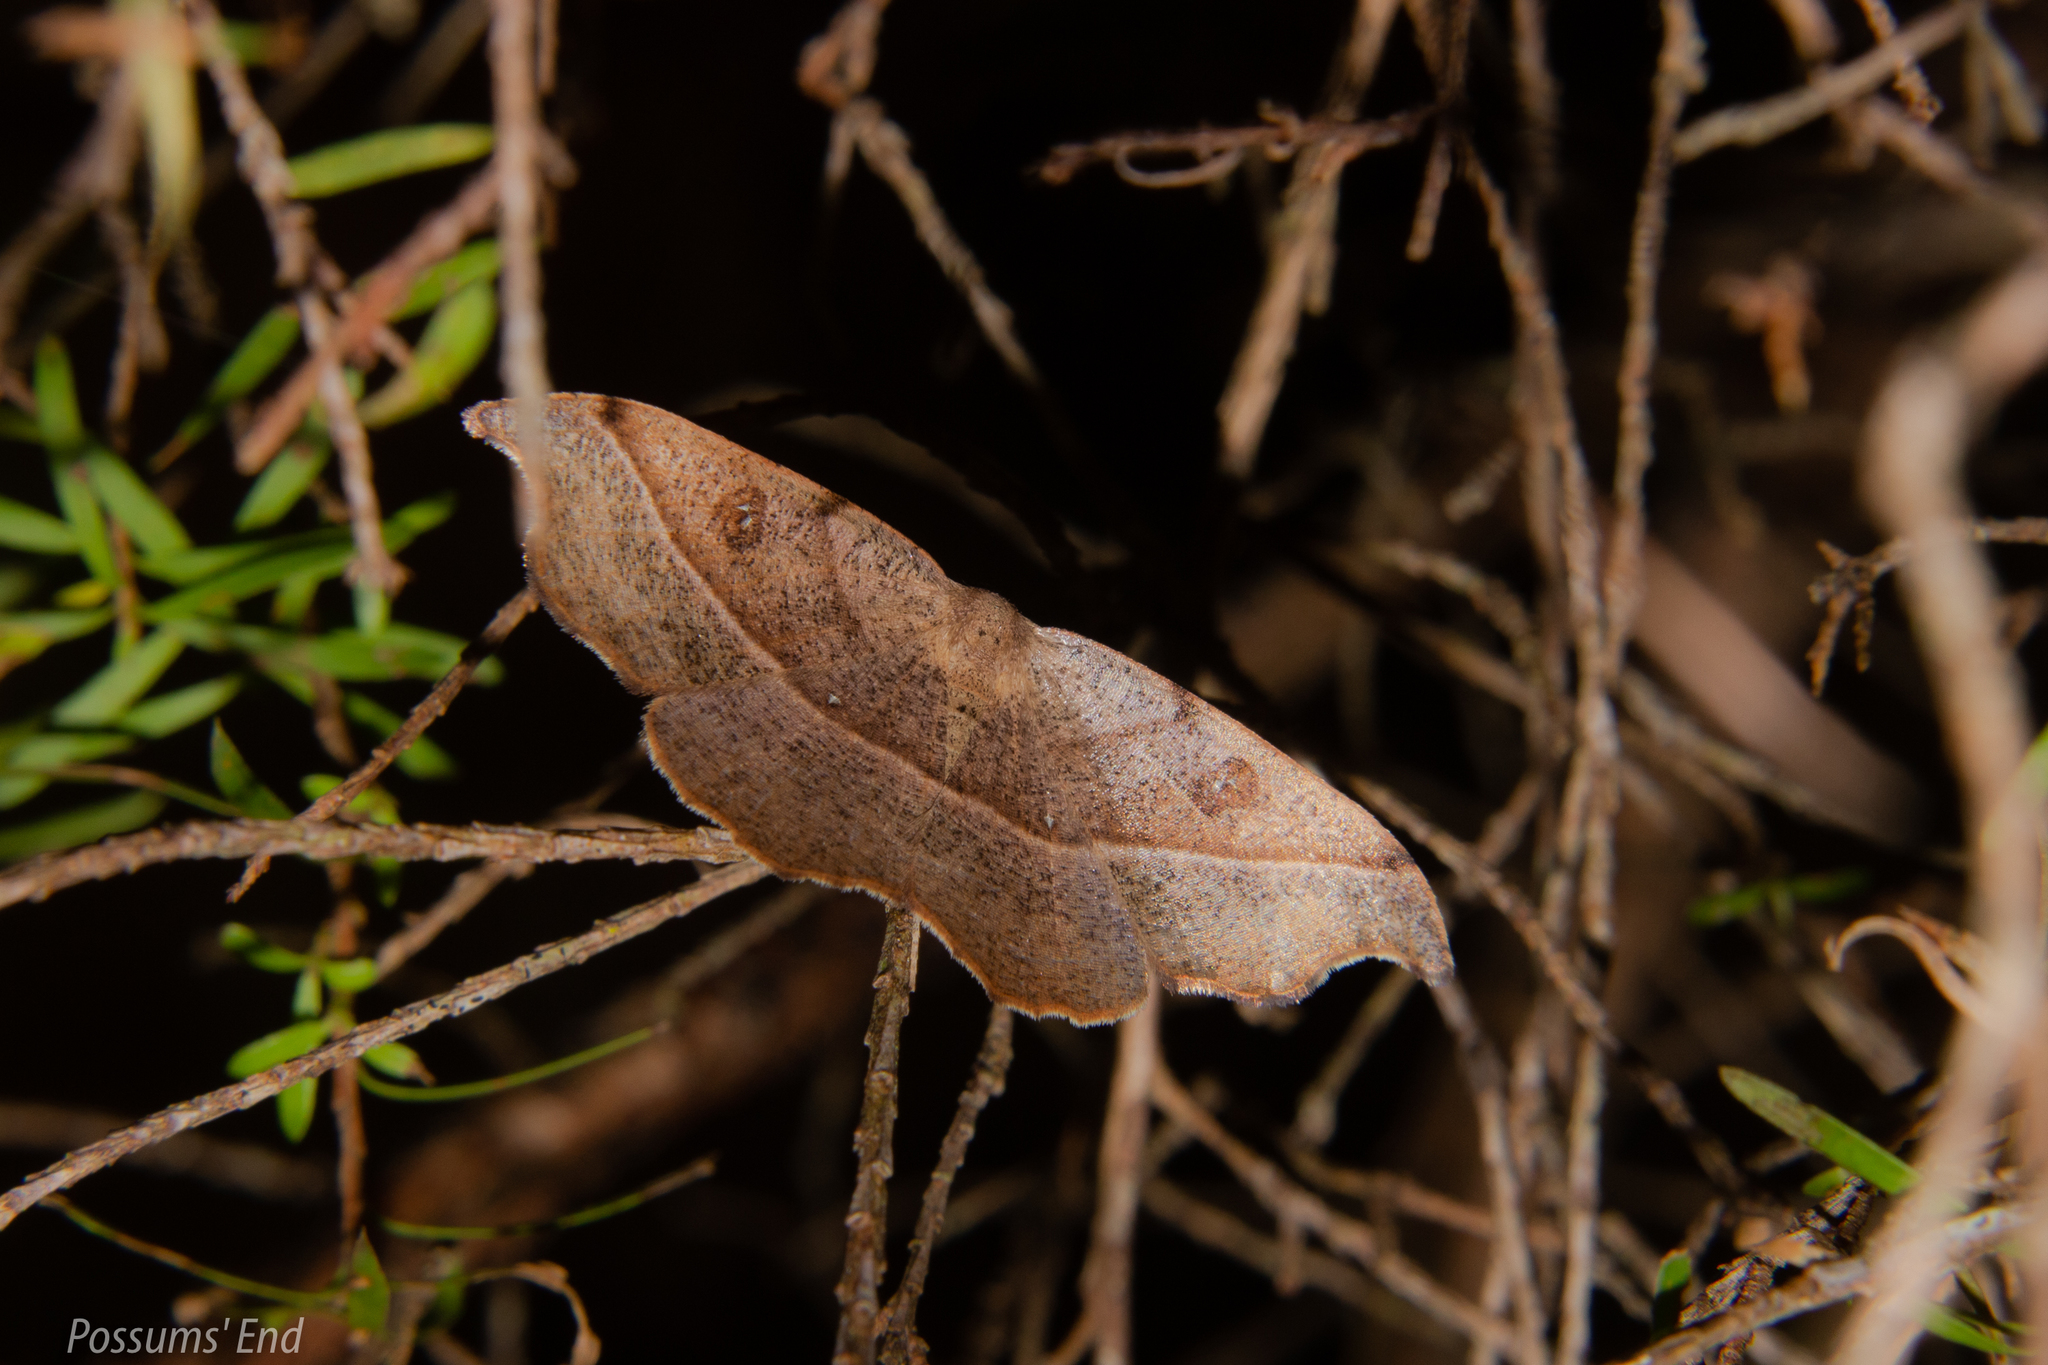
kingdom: Animalia
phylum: Arthropoda
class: Insecta
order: Lepidoptera
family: Geometridae
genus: Sarisa
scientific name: Sarisa muriferata
